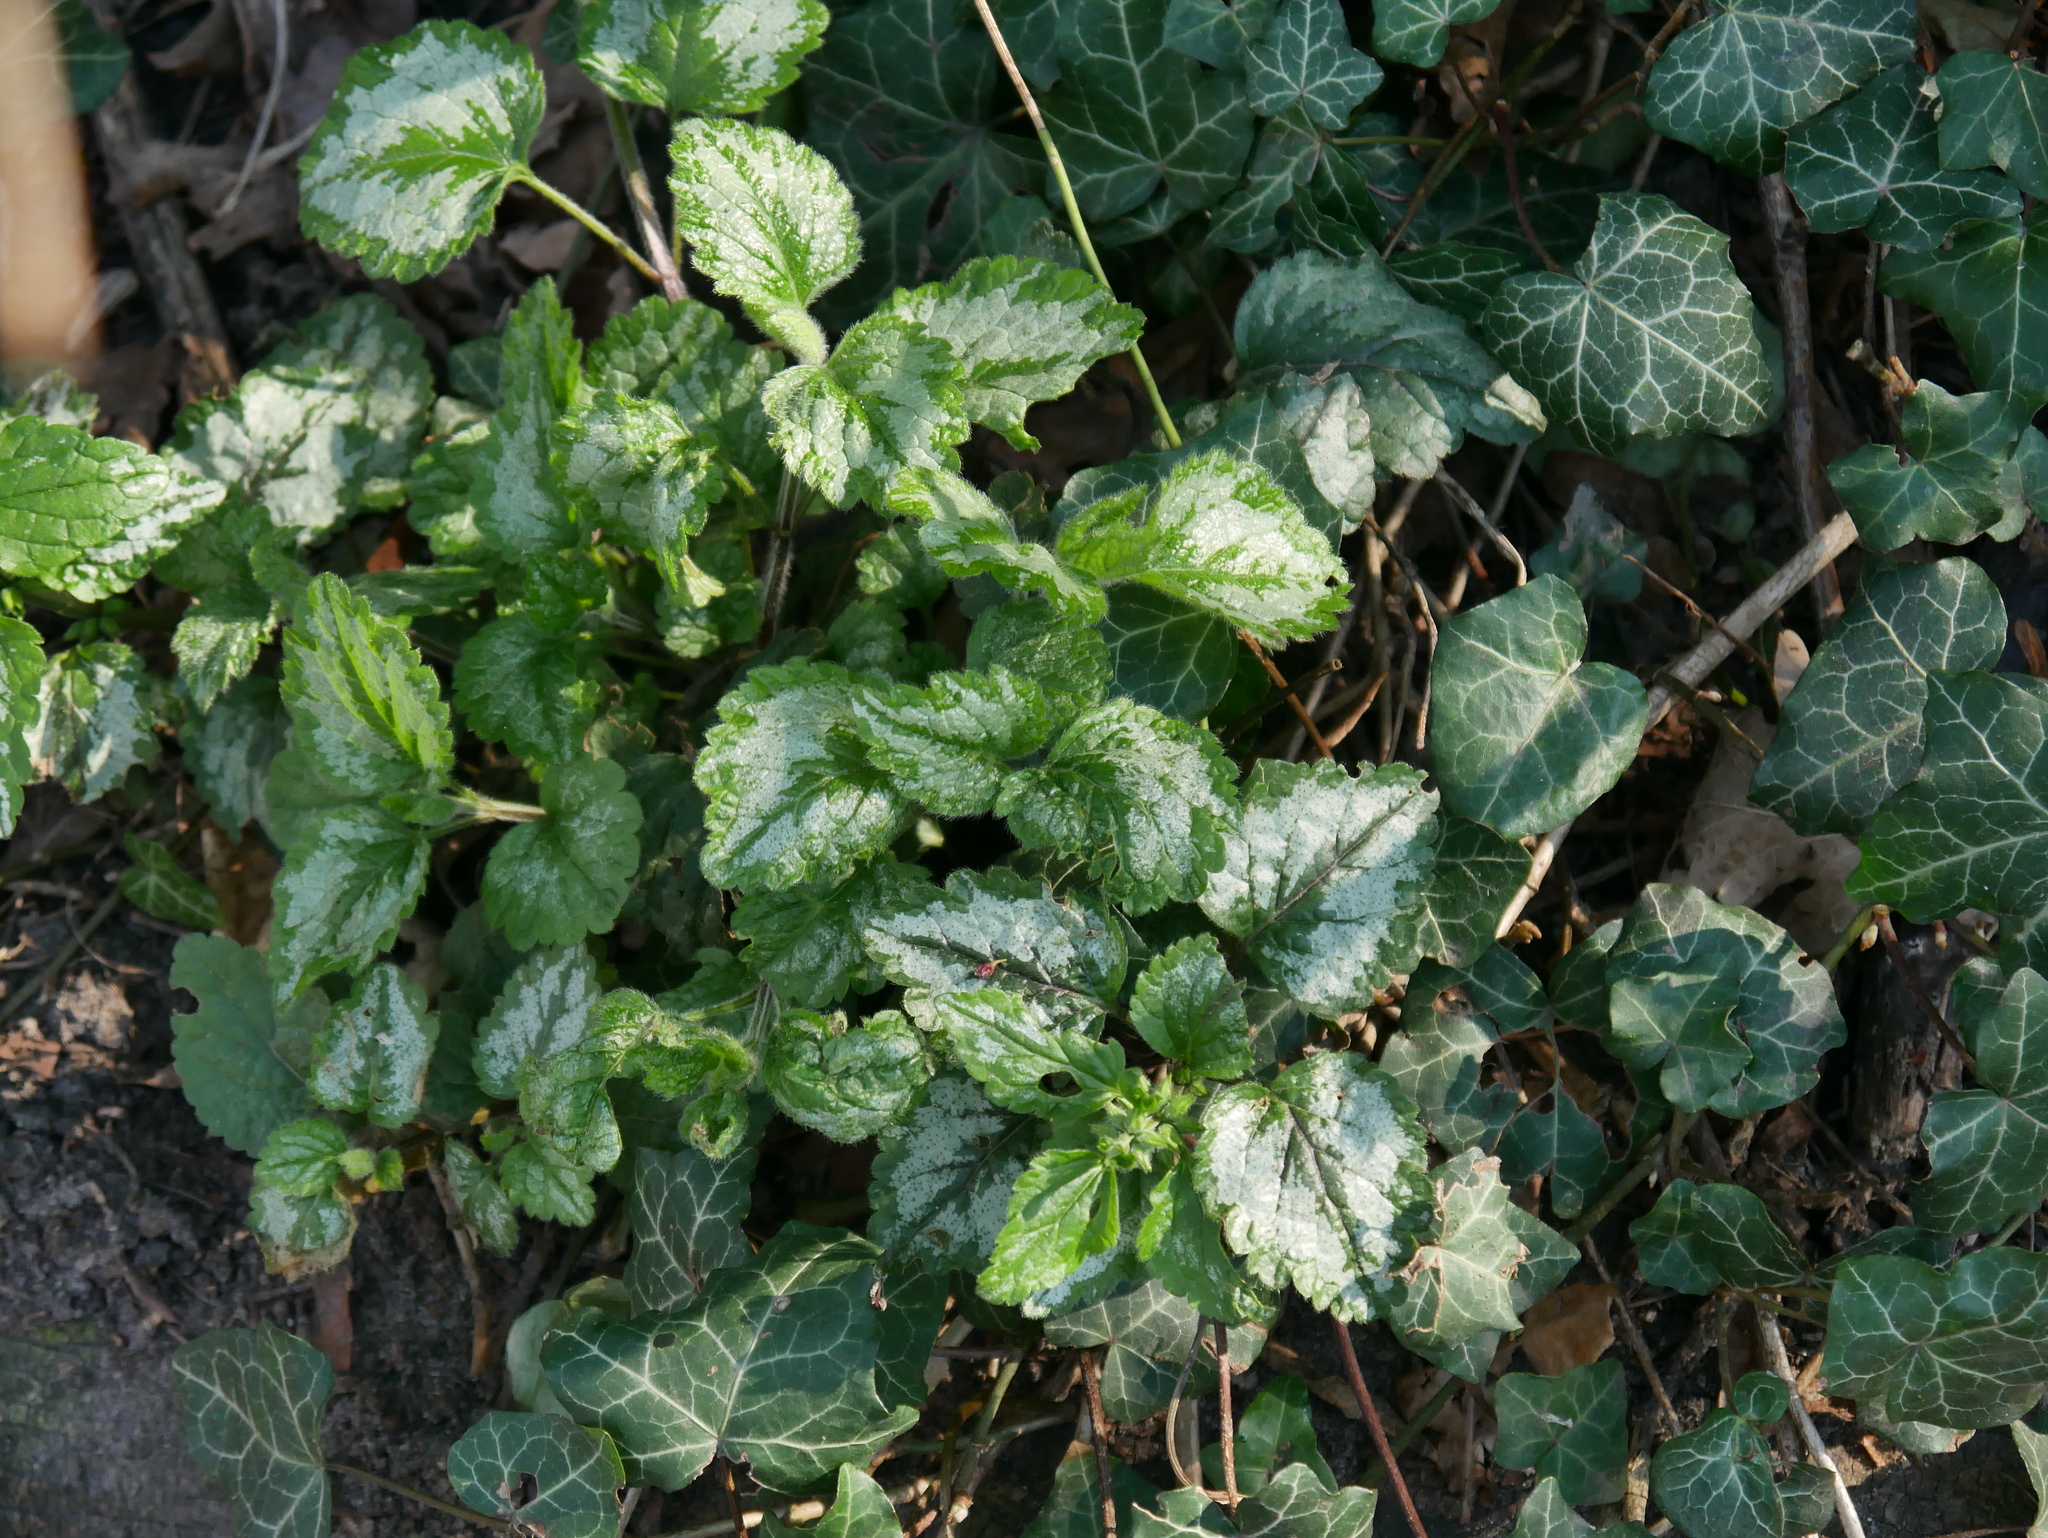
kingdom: Plantae
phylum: Tracheophyta
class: Magnoliopsida
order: Lamiales
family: Lamiaceae
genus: Lamium
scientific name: Lamium galeobdolon
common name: Yellow archangel
